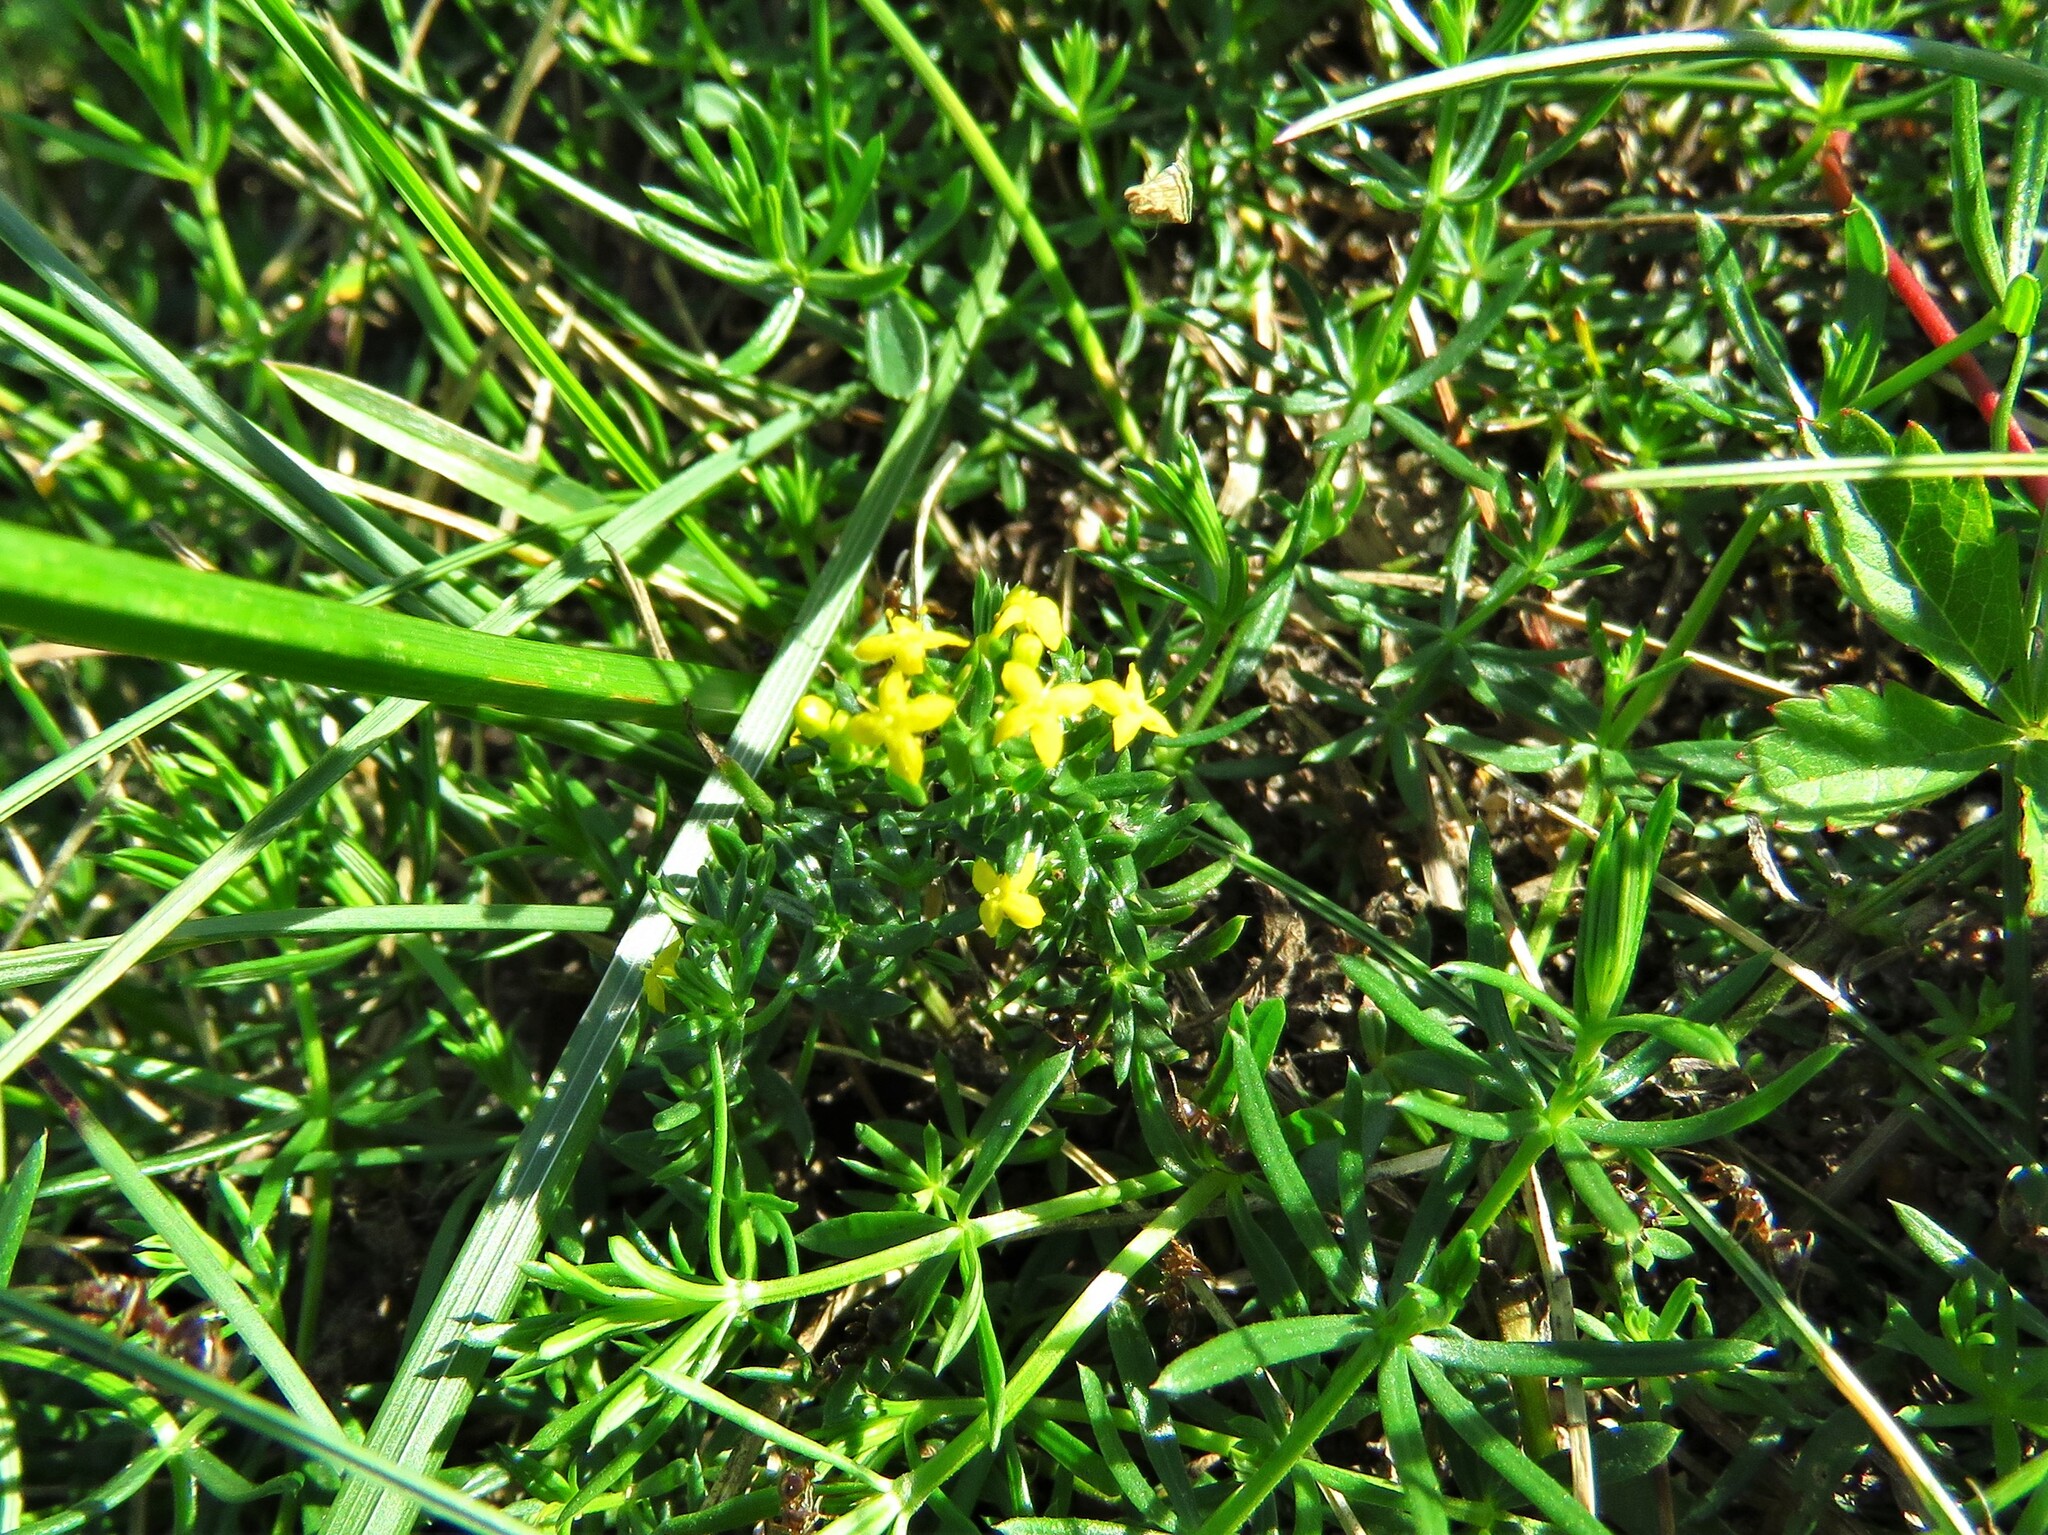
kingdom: Plantae
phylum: Tracheophyta
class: Magnoliopsida
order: Gentianales
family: Rubiaceae
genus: Galium
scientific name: Galium verum
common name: Lady's bedstraw
